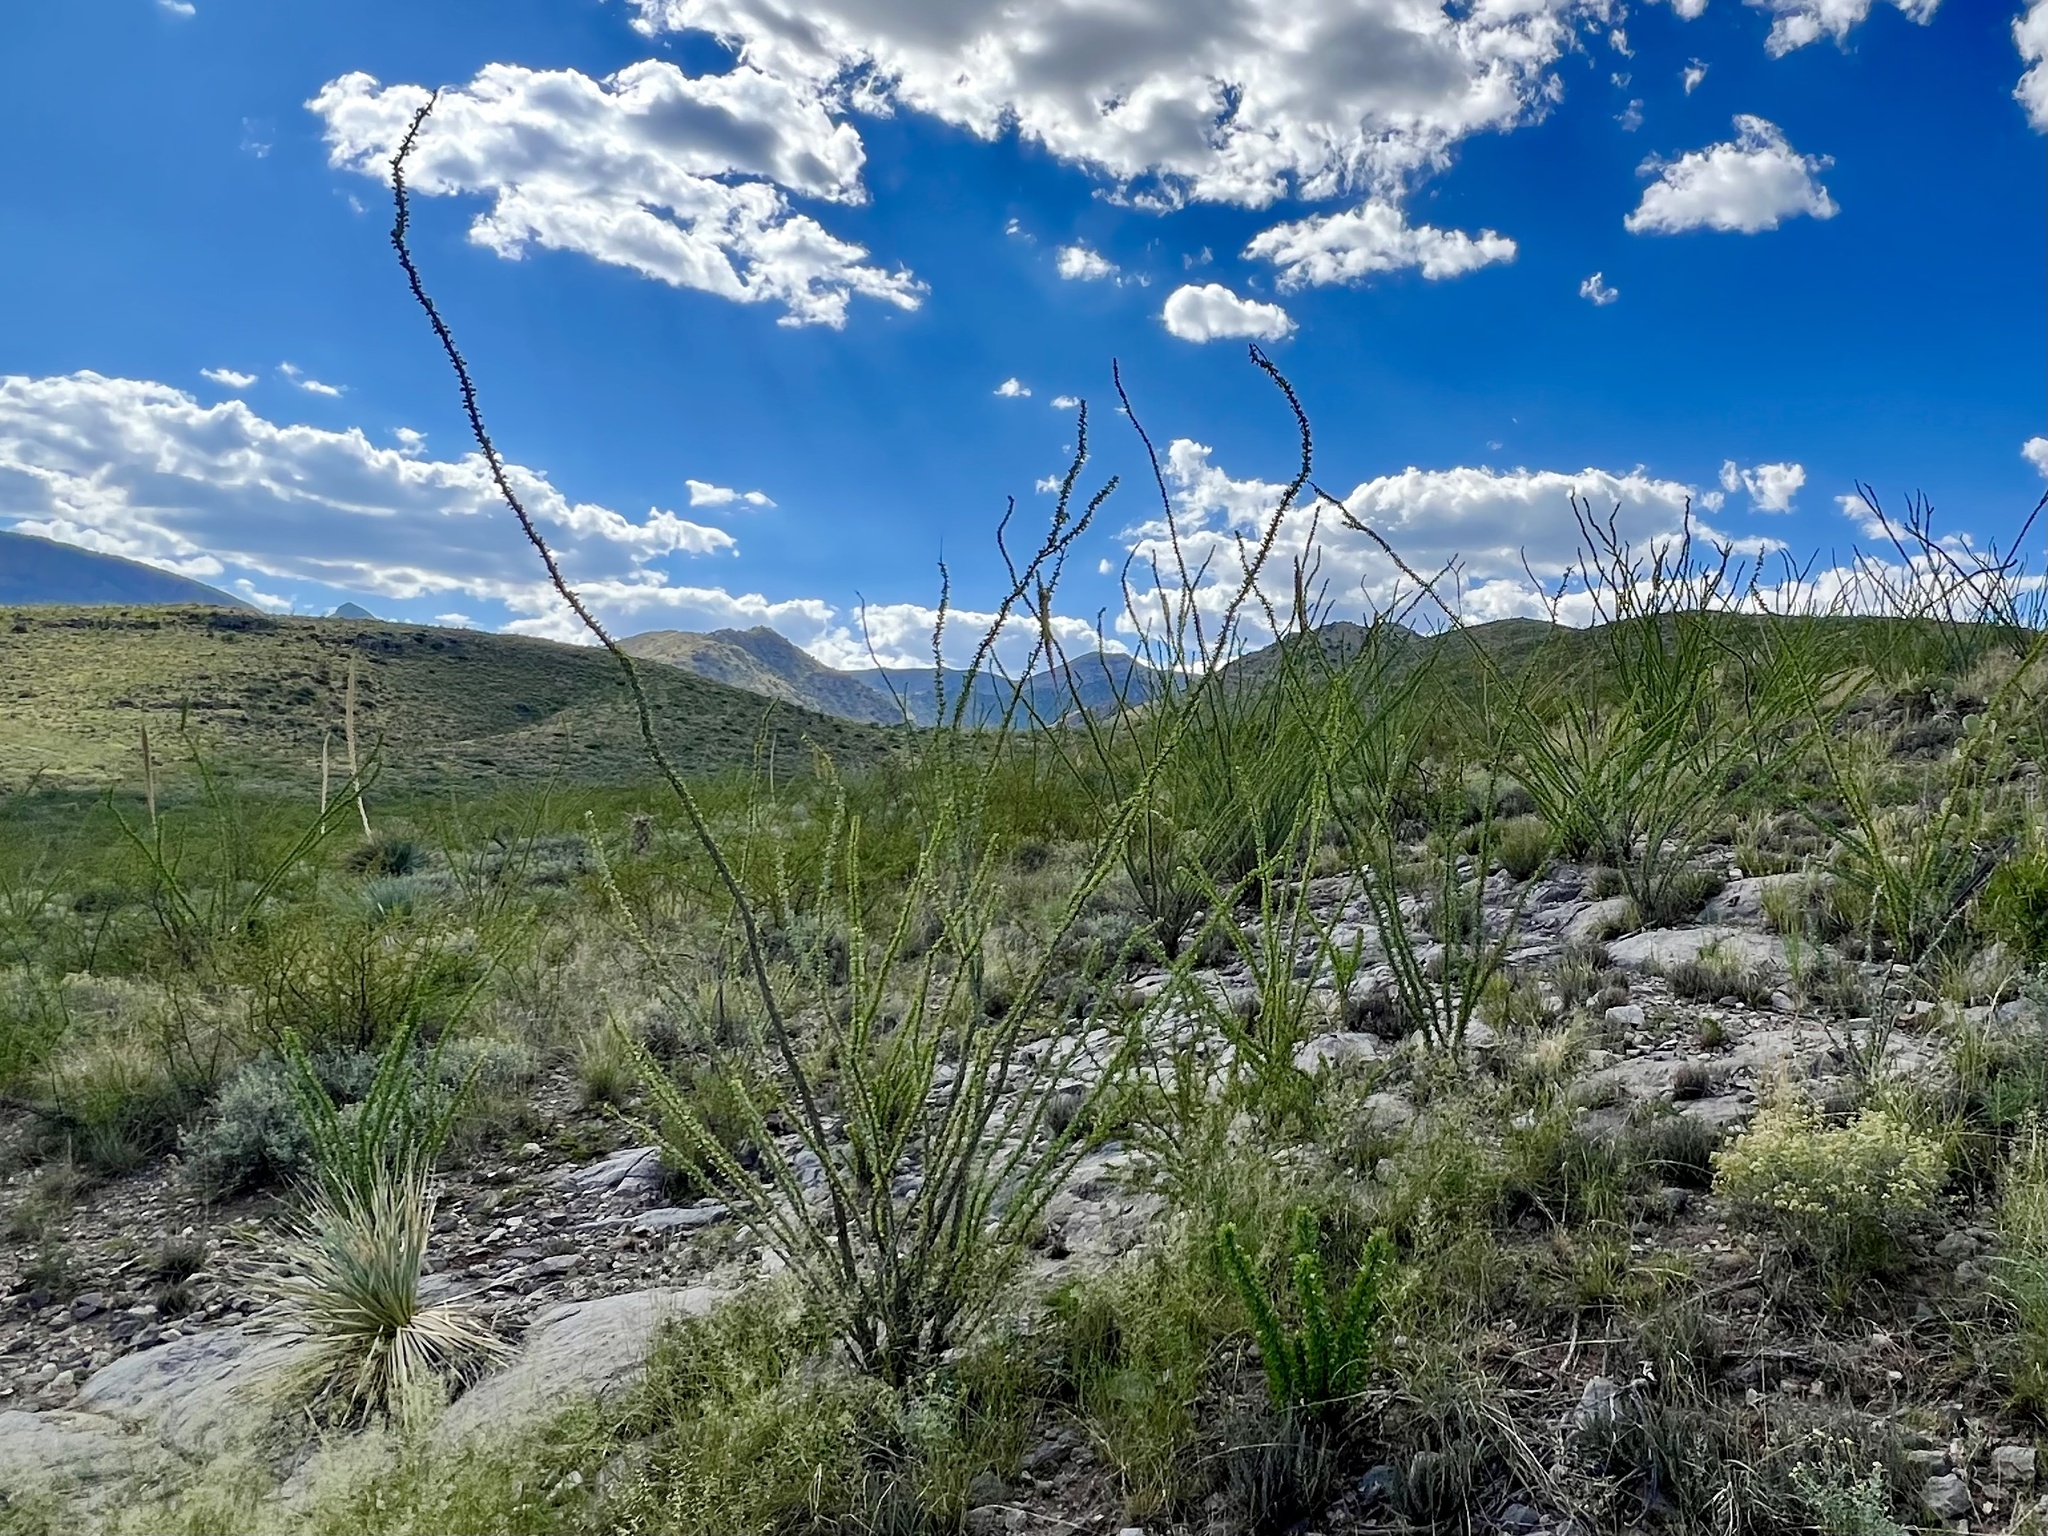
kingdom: Plantae
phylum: Tracheophyta
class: Magnoliopsida
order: Ericales
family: Fouquieriaceae
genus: Fouquieria
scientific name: Fouquieria splendens
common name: Vine-cactus
